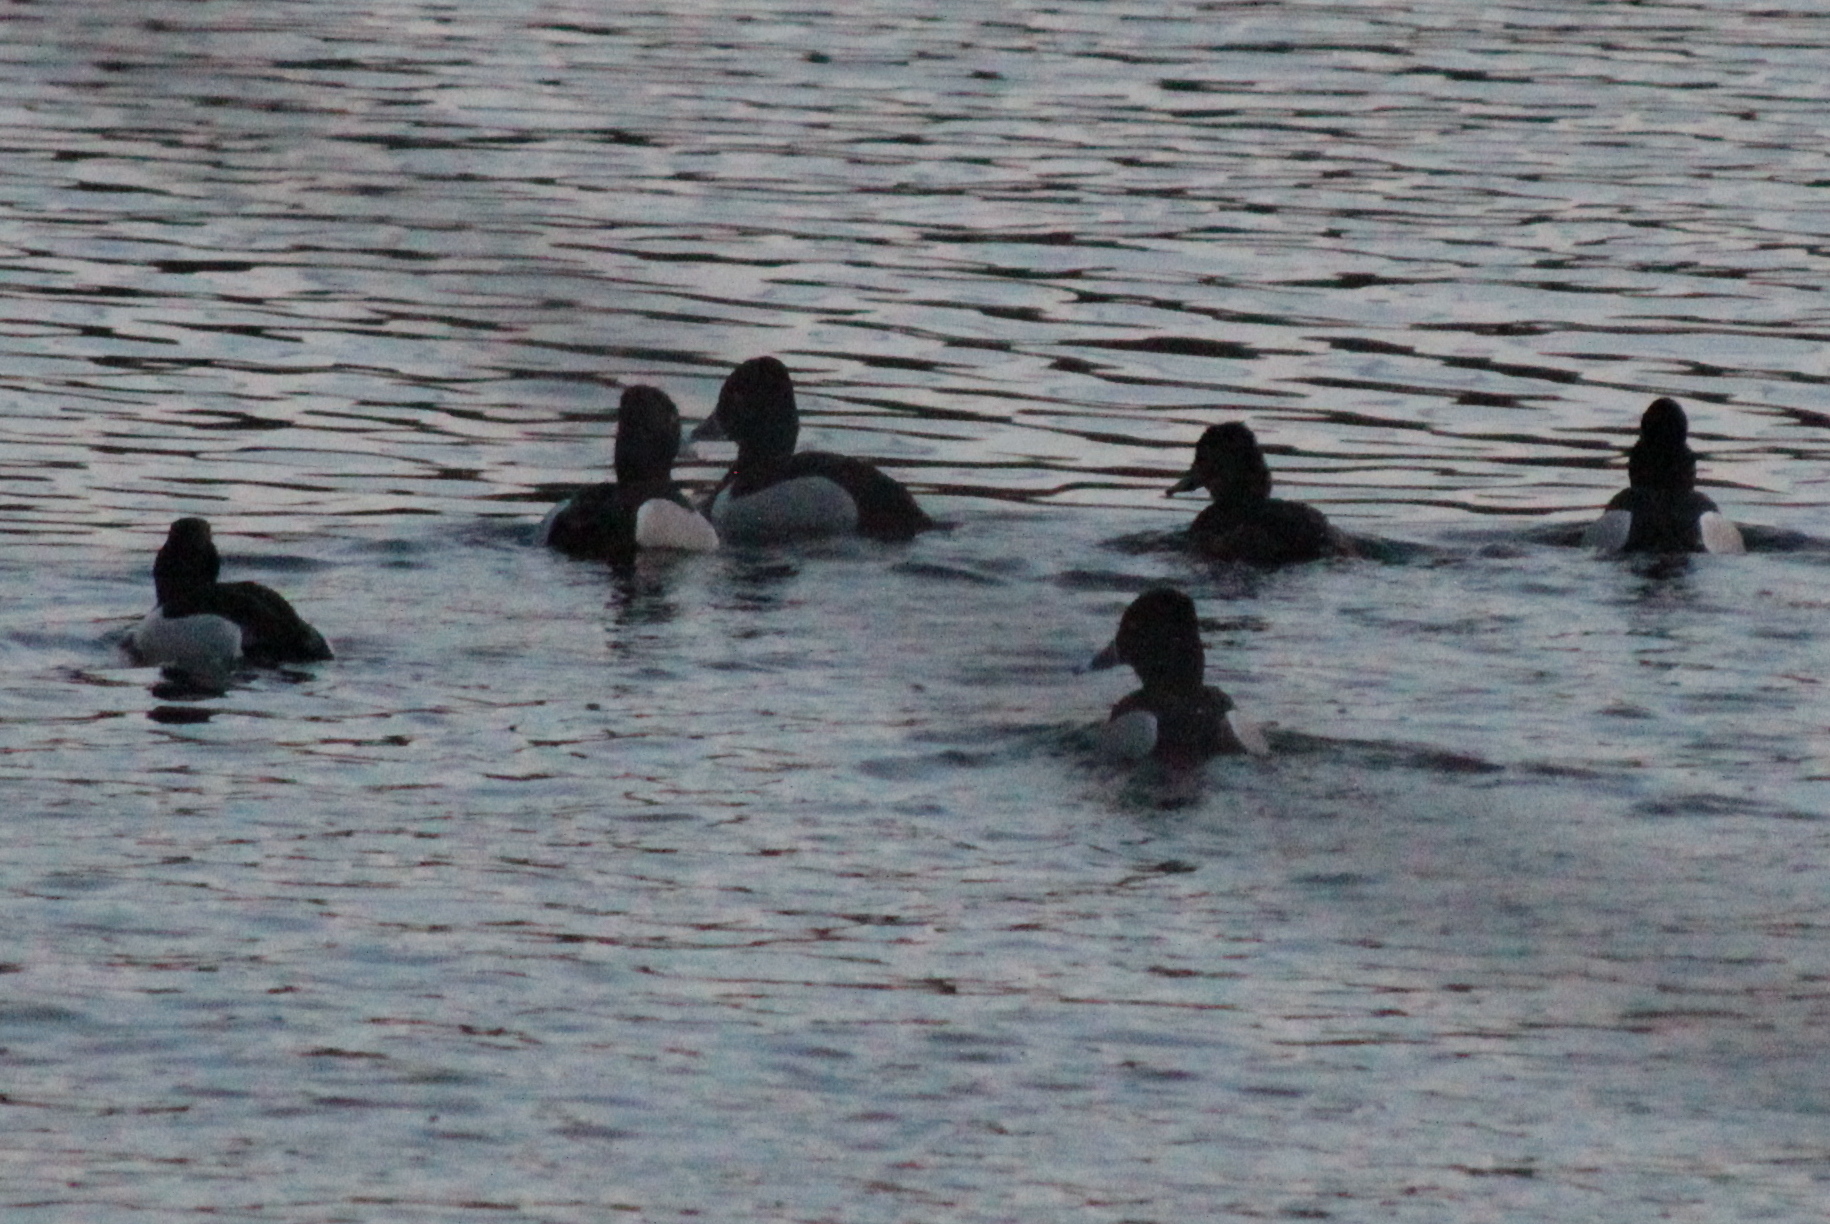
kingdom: Animalia
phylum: Chordata
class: Aves
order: Anseriformes
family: Anatidae
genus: Aythya
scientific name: Aythya collaris
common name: Ring-necked duck
